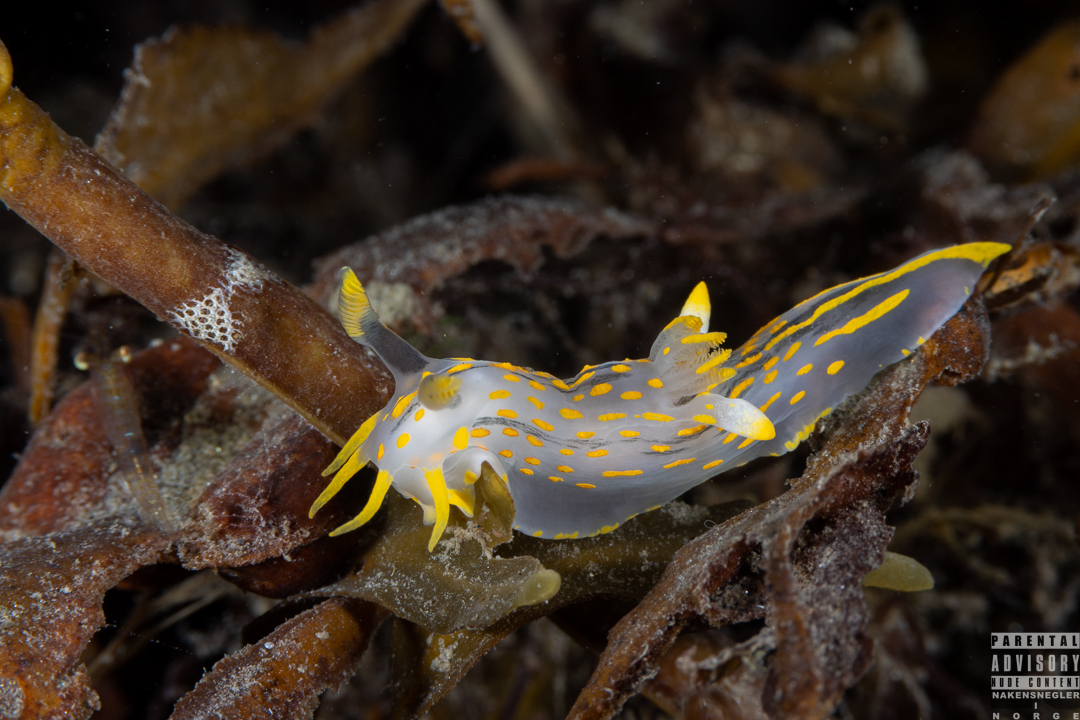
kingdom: Animalia
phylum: Mollusca
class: Gastropoda
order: Nudibranchia
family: Polyceridae
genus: Polycera
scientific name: Polycera quadrilineata
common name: Four-striped polycera
